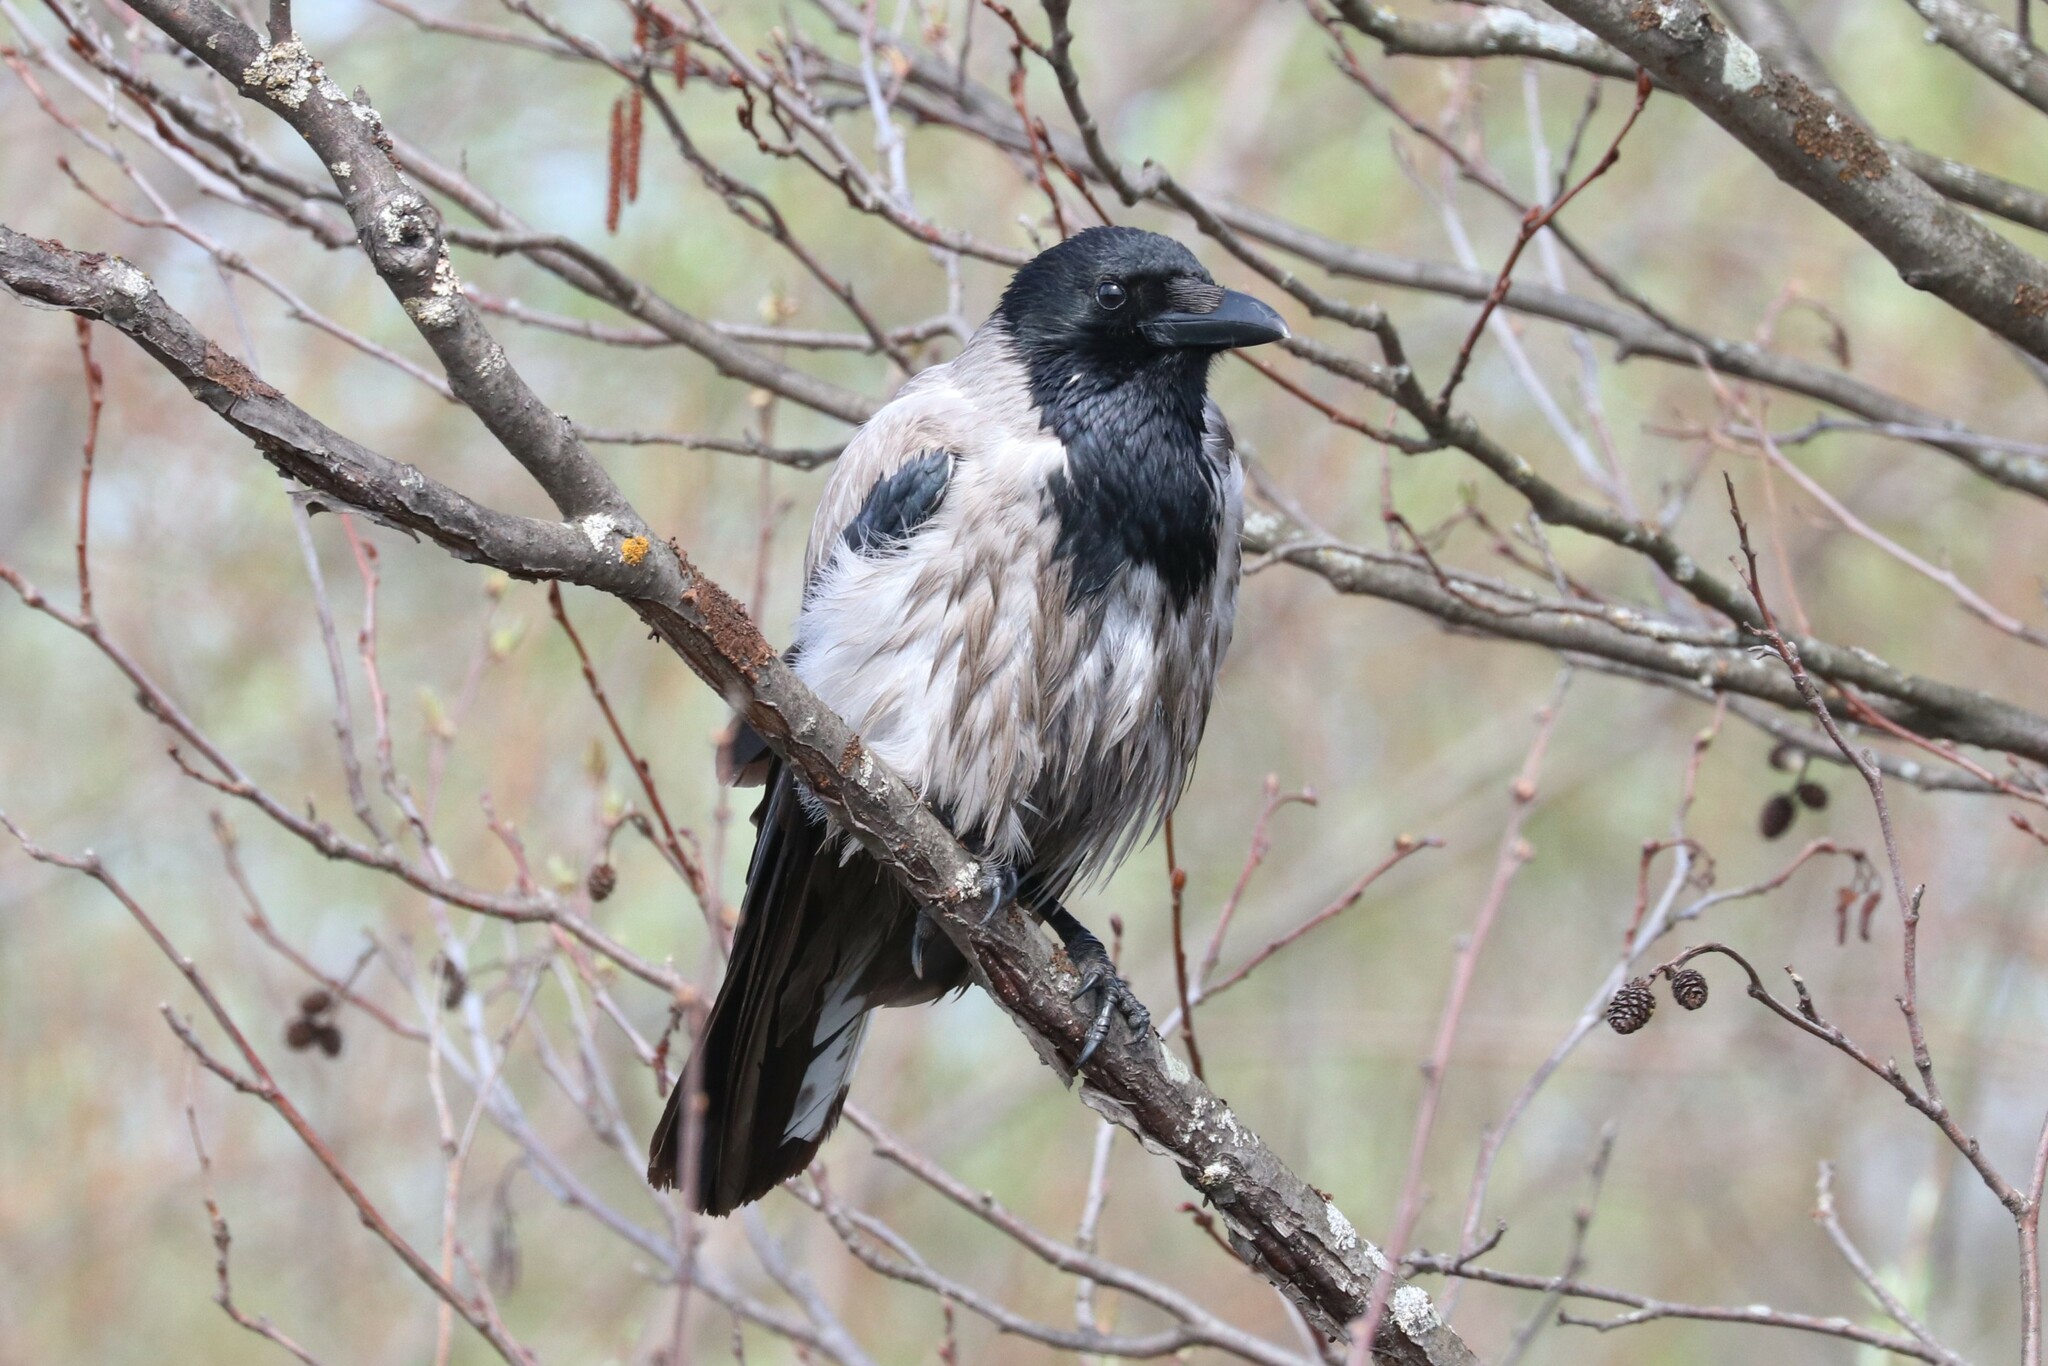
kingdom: Animalia
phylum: Chordata
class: Aves
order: Passeriformes
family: Corvidae
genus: Corvus
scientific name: Corvus cornix
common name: Hooded crow
